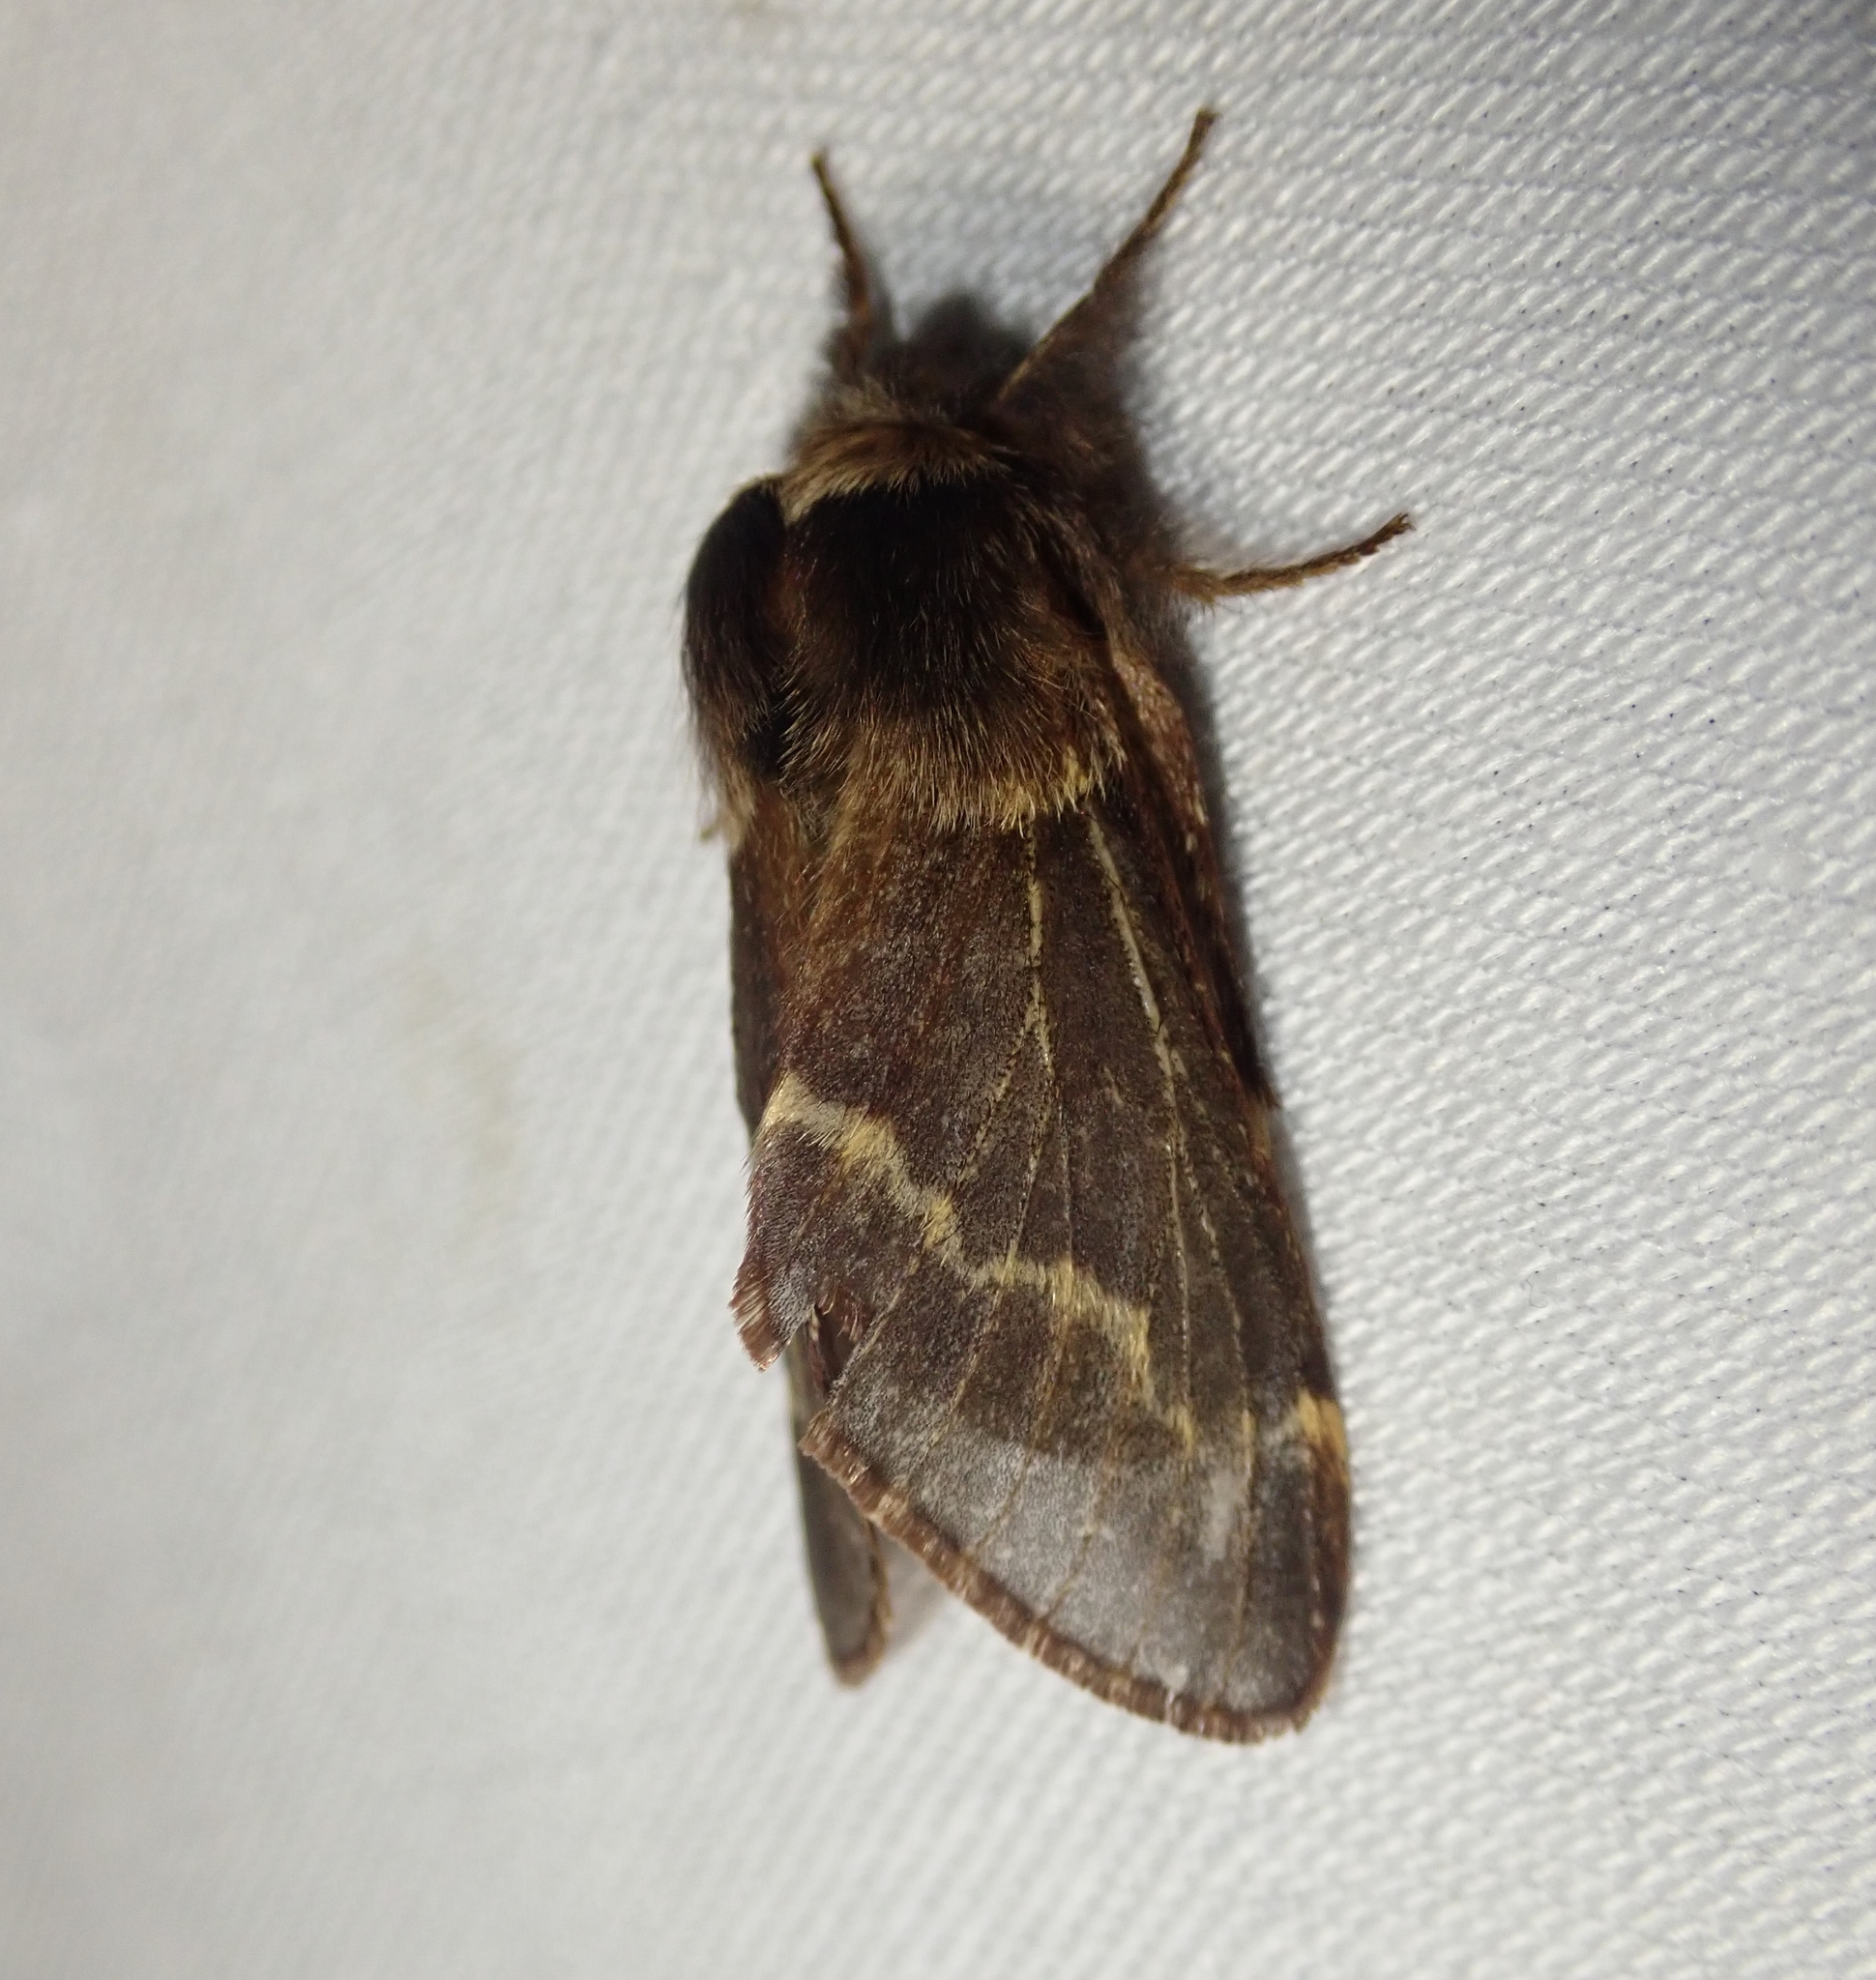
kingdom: Animalia
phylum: Arthropoda
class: Insecta
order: Lepidoptera
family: Lasiocampidae
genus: Poecilocampa
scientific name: Poecilocampa populi
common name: December moth
